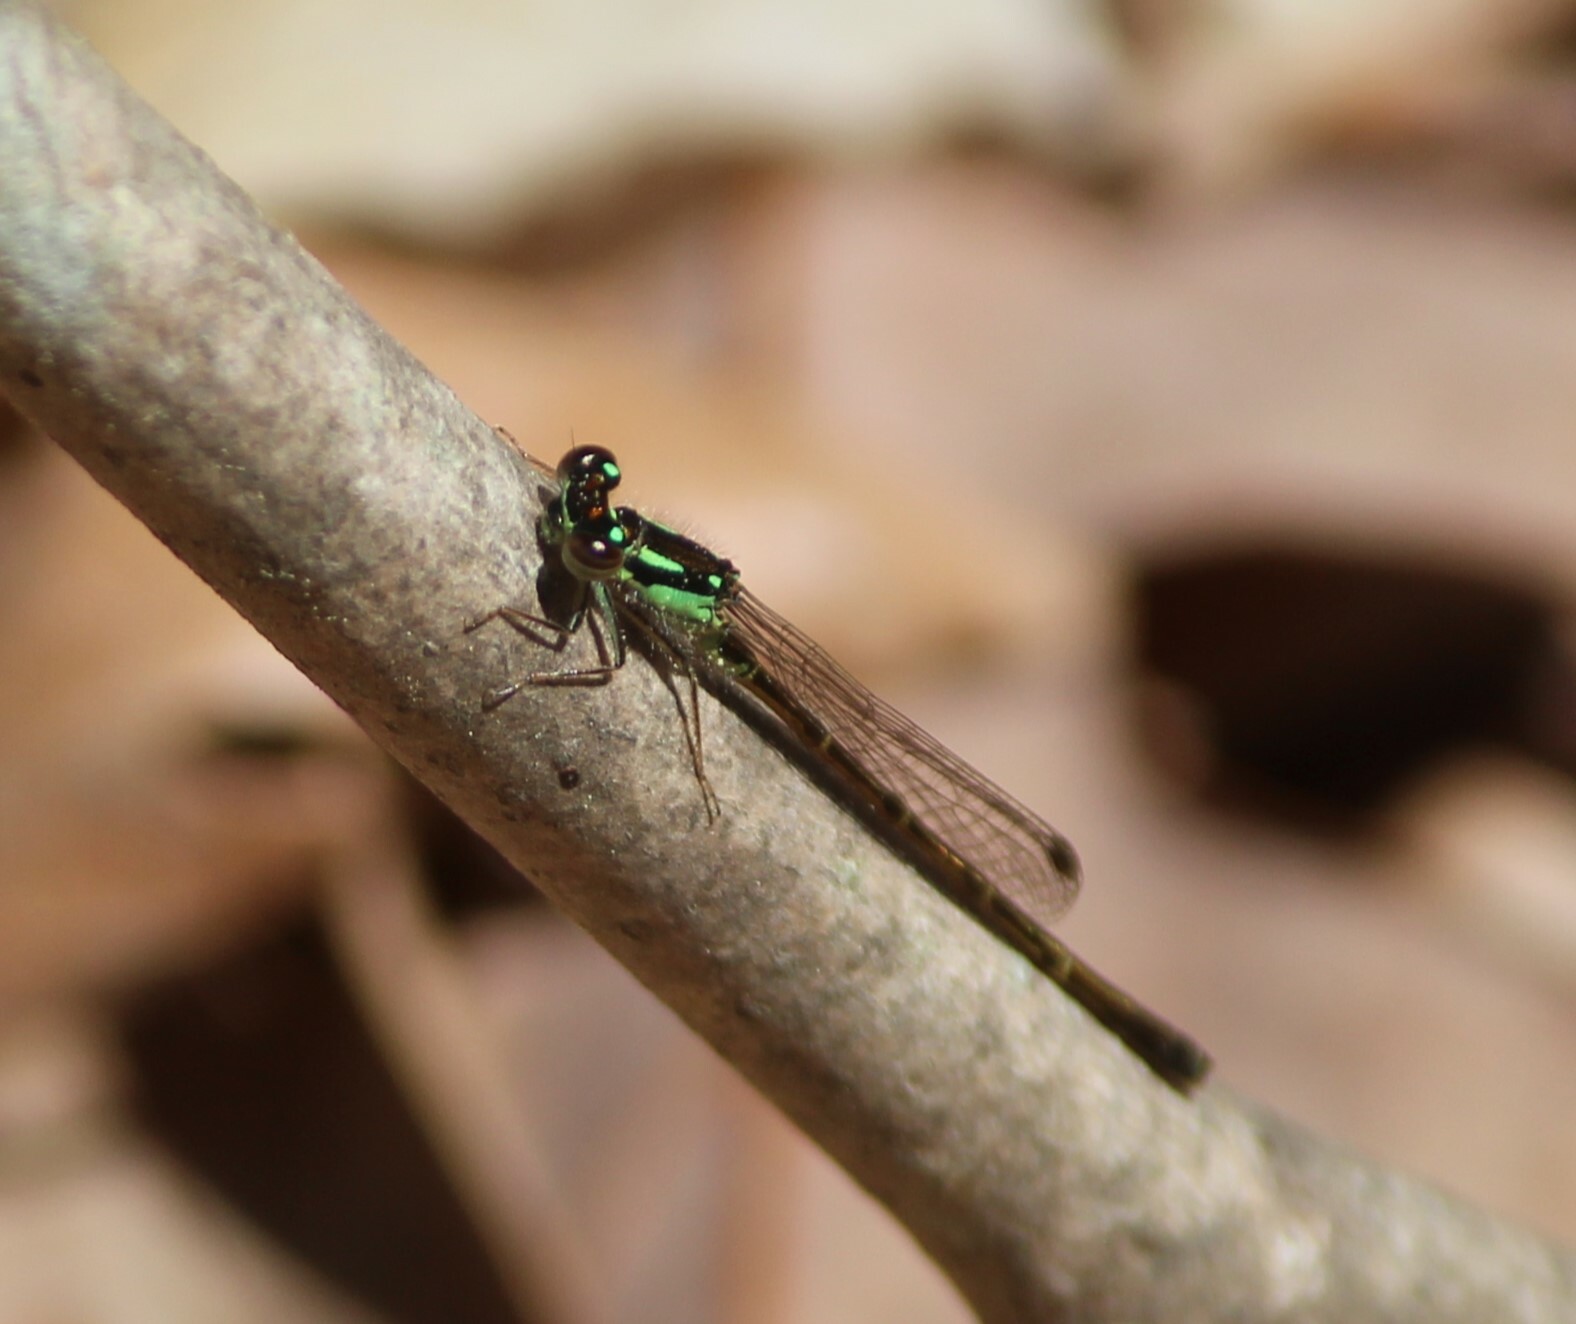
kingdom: Animalia
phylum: Arthropoda
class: Insecta
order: Odonata
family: Coenagrionidae
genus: Ischnura
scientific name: Ischnura posita
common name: Fragile forktail
